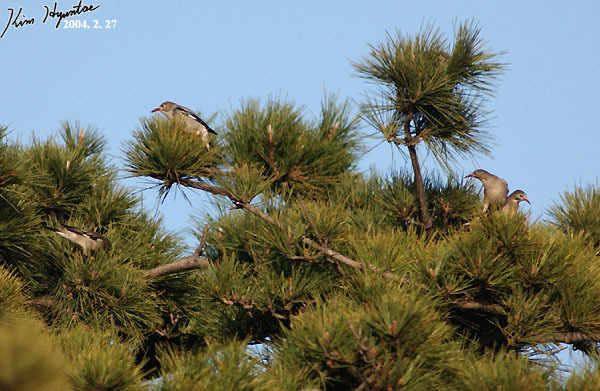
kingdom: Animalia
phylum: Chordata
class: Aves
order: Passeriformes
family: Sturnidae
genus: Spodiopsar
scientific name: Spodiopsar sericeus
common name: Red-billed starling
